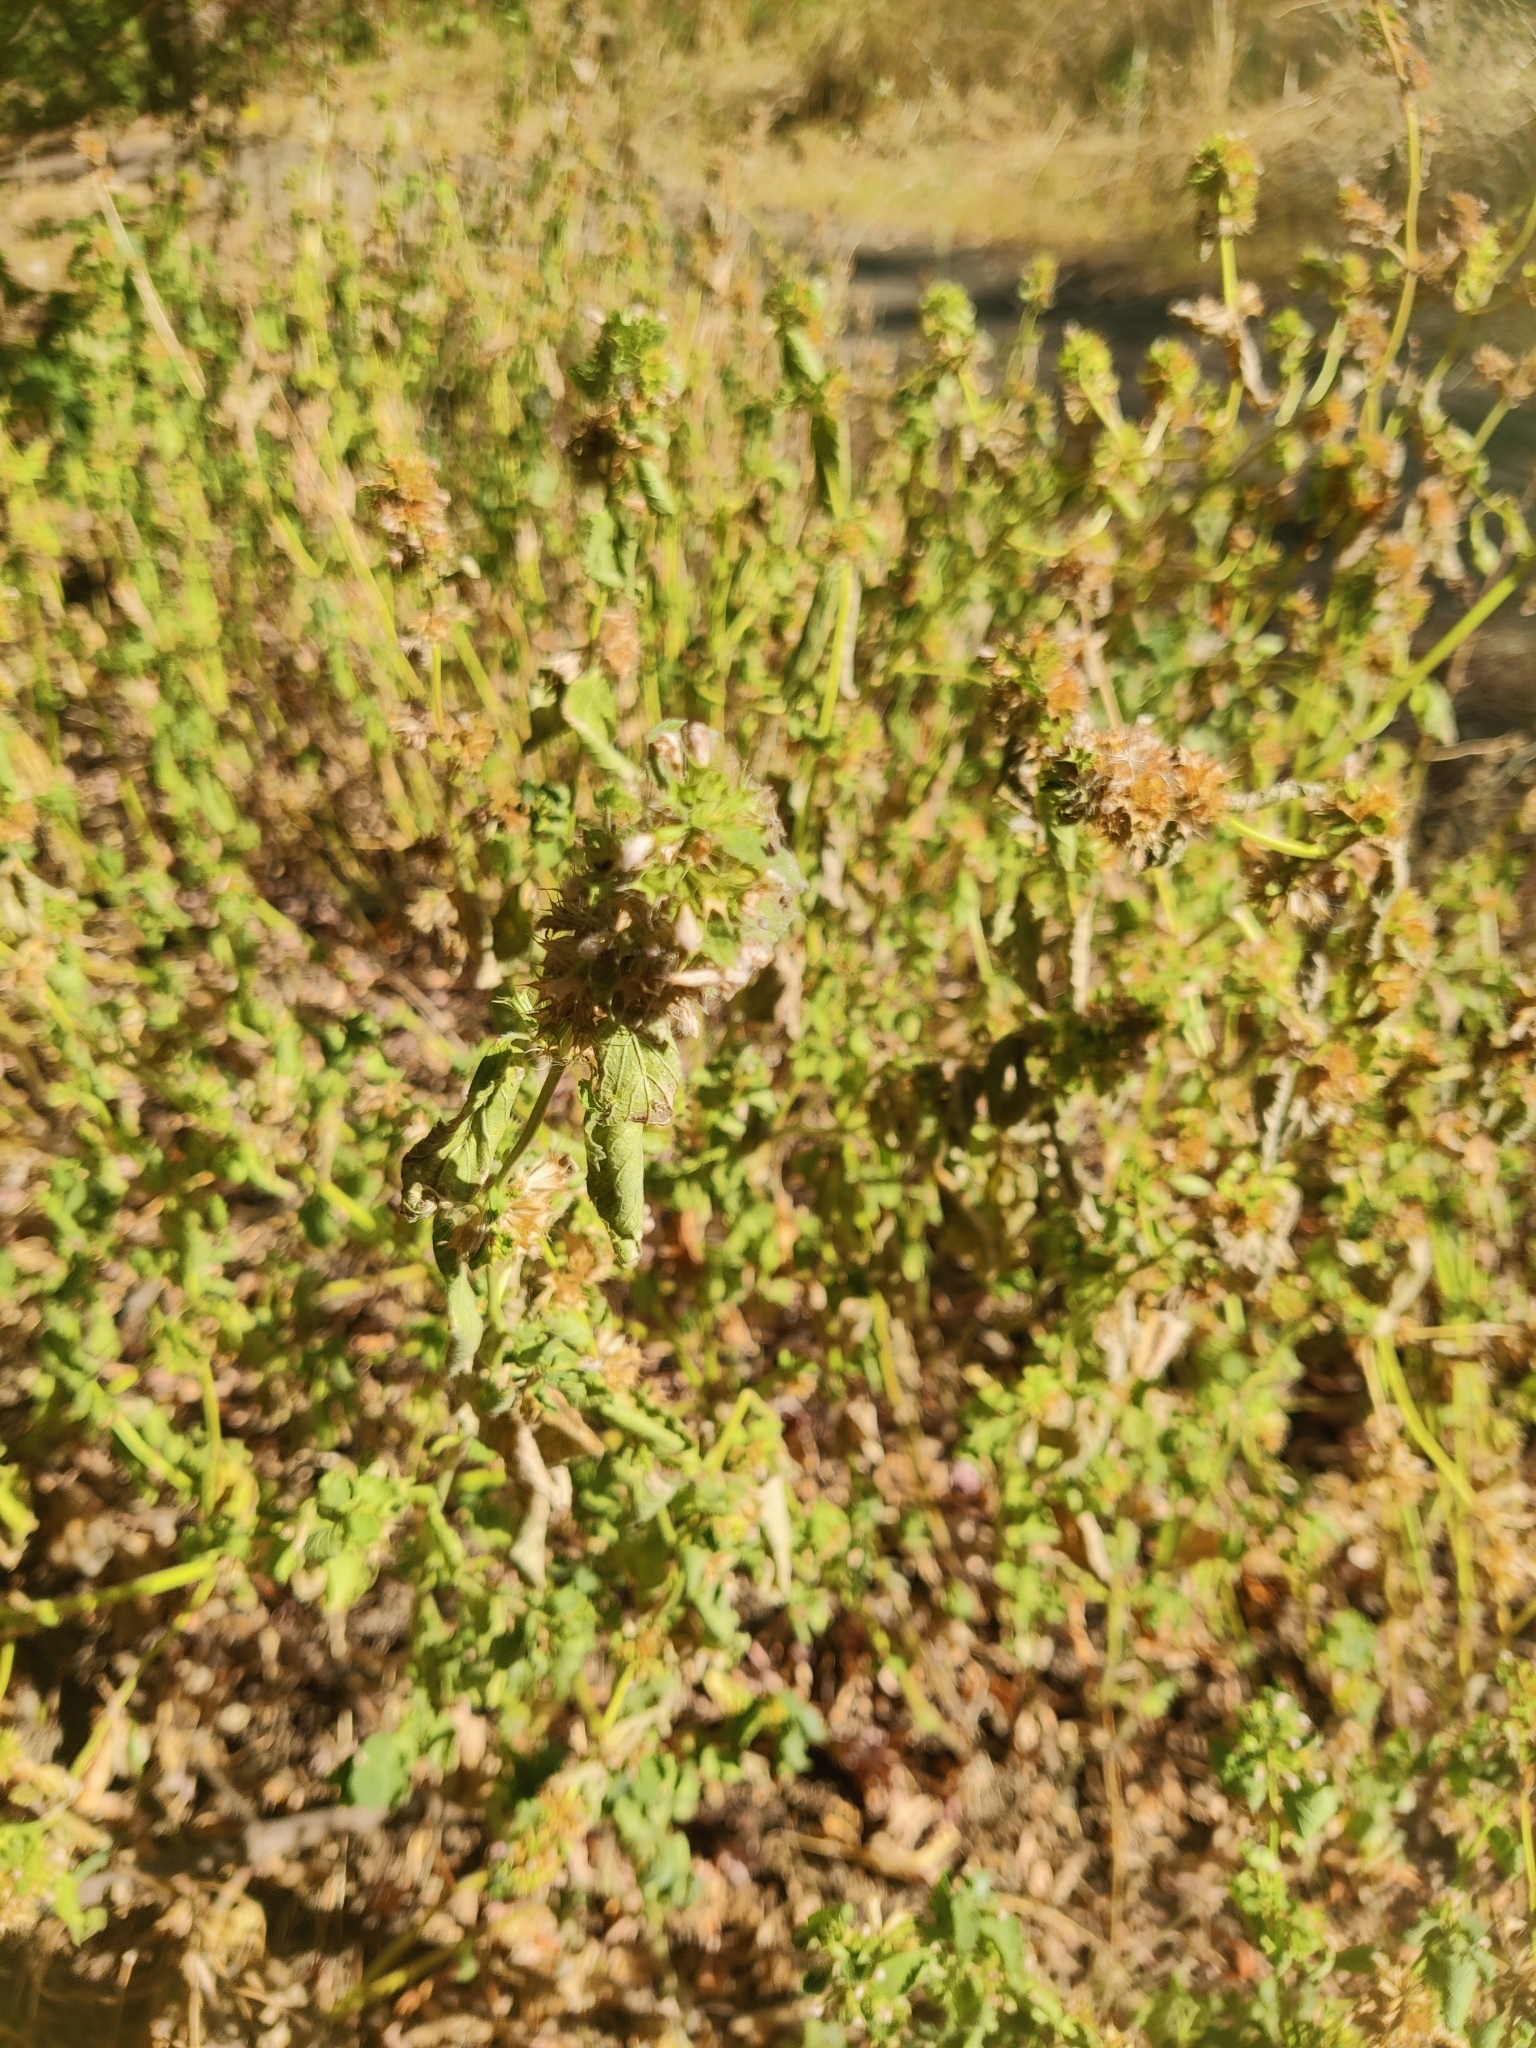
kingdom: Plantae
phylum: Tracheophyta
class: Magnoliopsida
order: Lamiales
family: Lamiaceae
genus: Ballota
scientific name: Ballota nigra
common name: Black horehound
